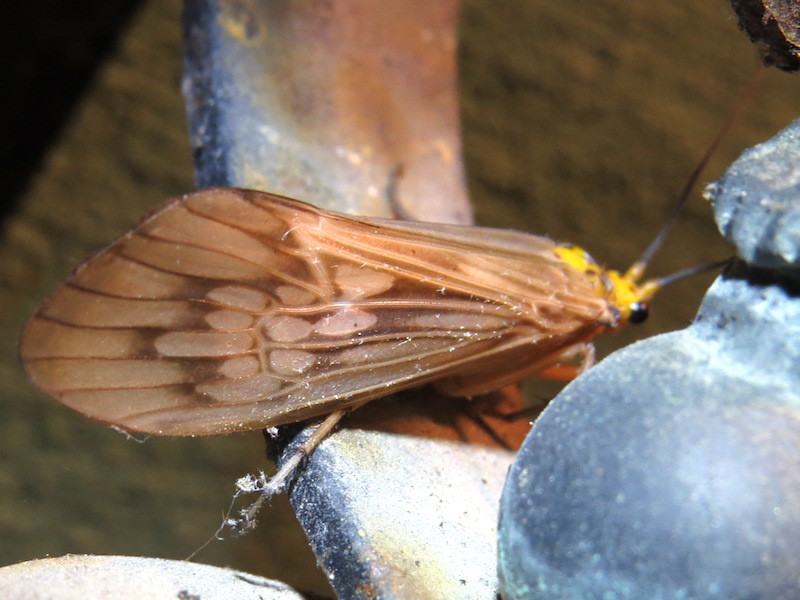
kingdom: Animalia
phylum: Arthropoda
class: Insecta
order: Trichoptera
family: Limnephilidae
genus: Hydatophylax
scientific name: Hydatophylax argus
